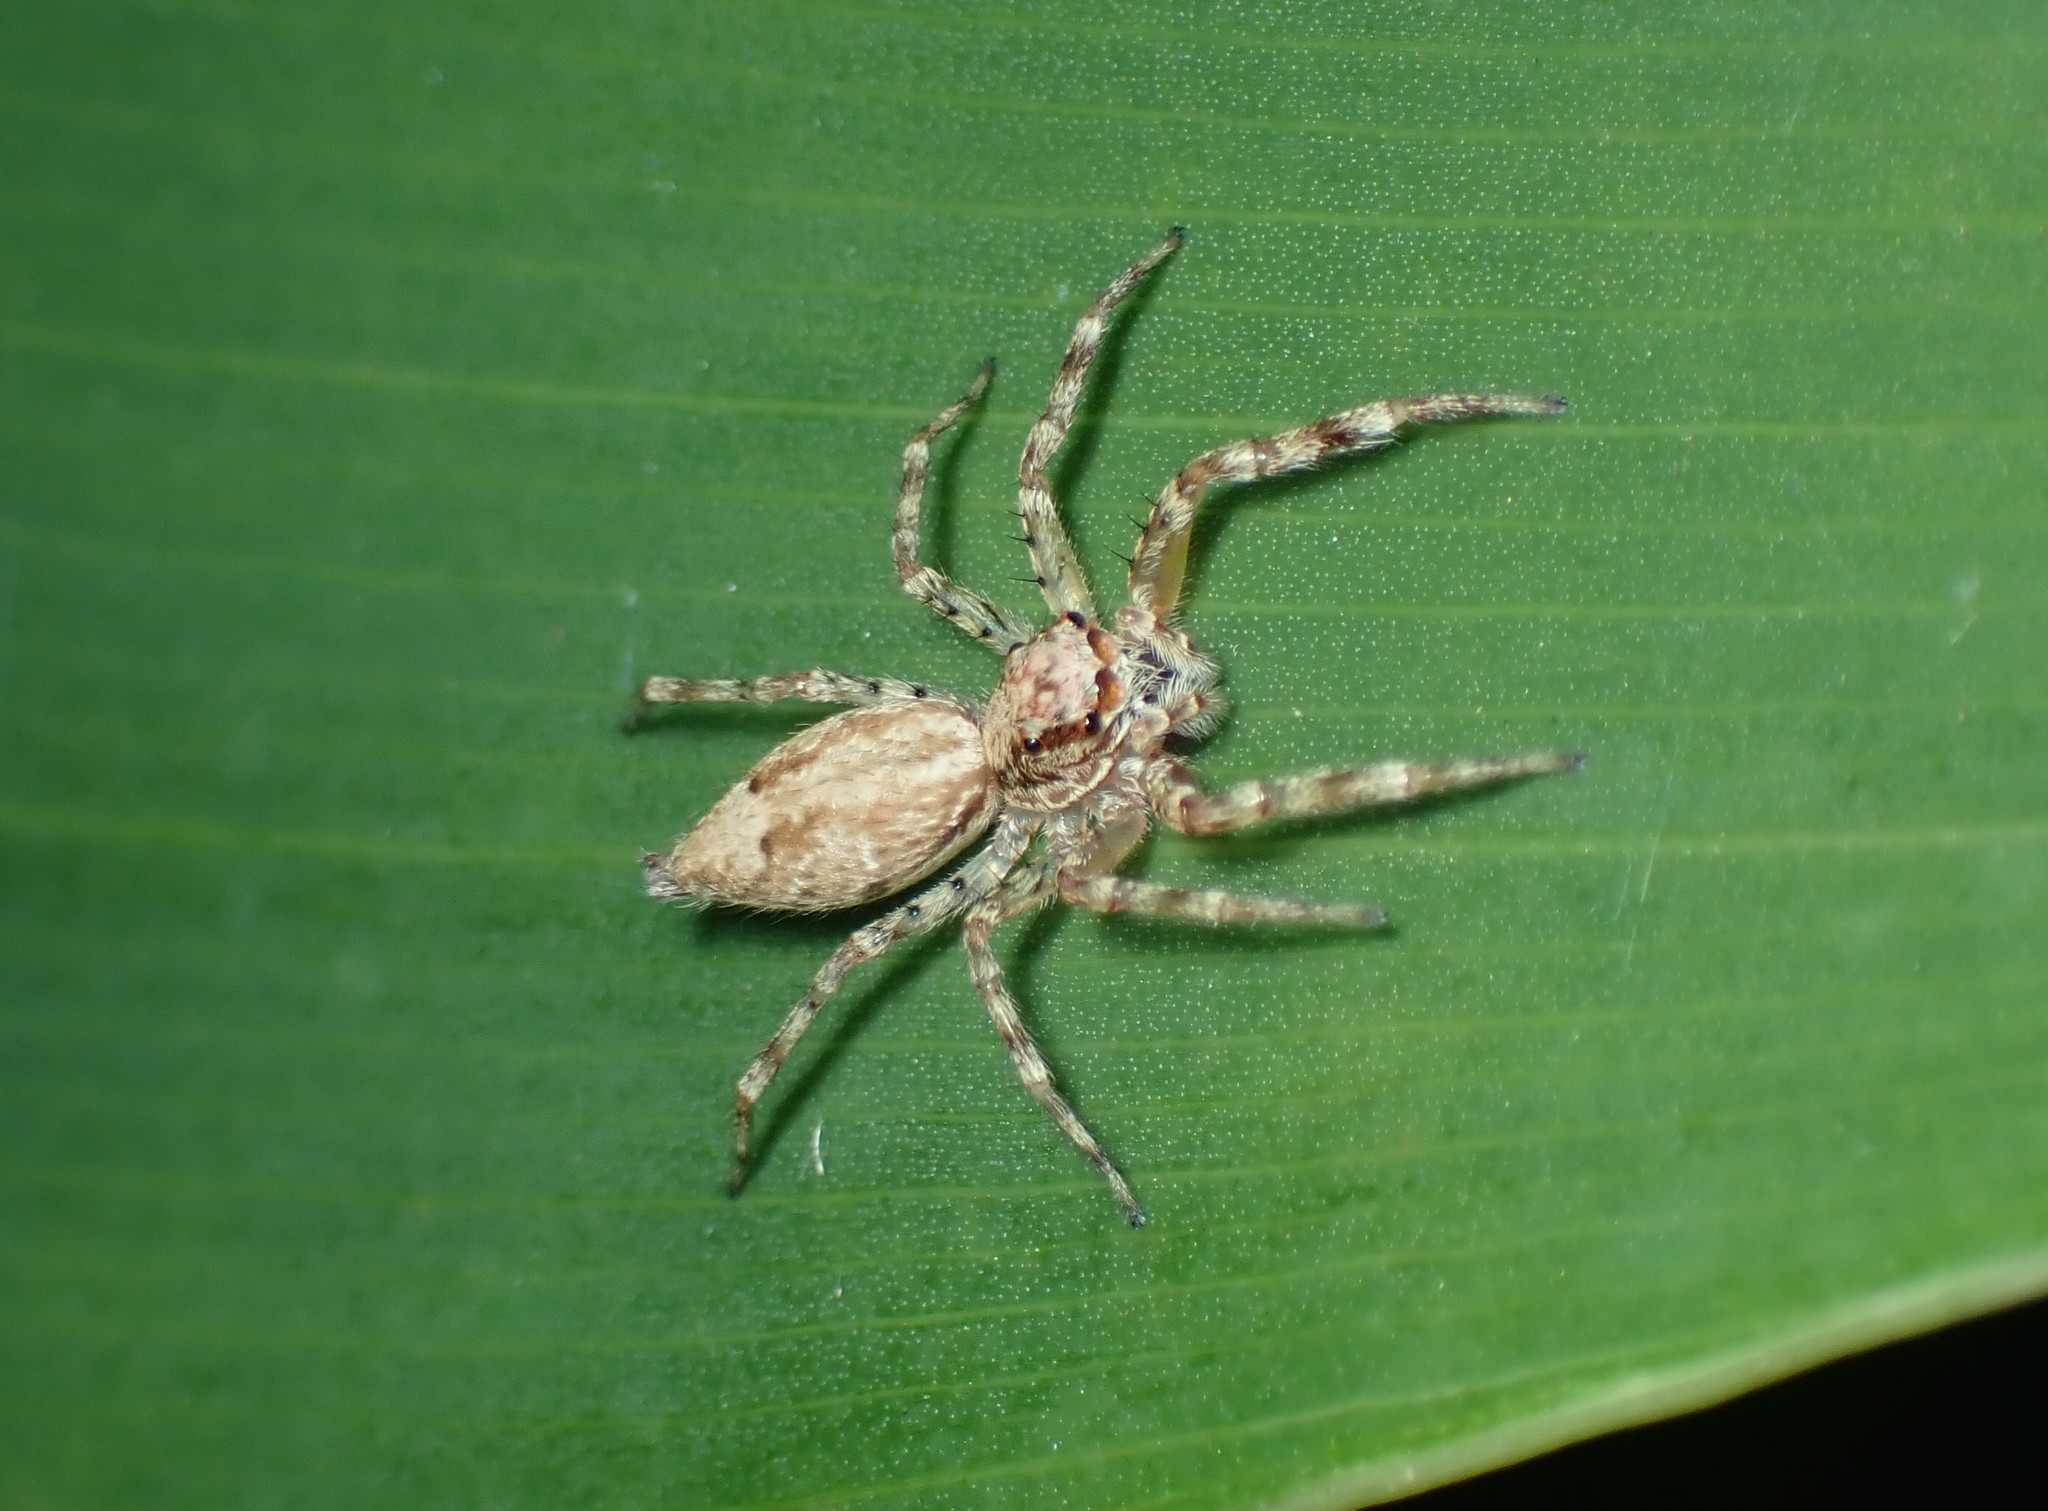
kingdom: Animalia
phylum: Arthropoda
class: Arachnida
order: Araneae
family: Salticidae
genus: Helpis
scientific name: Helpis minitabunda
